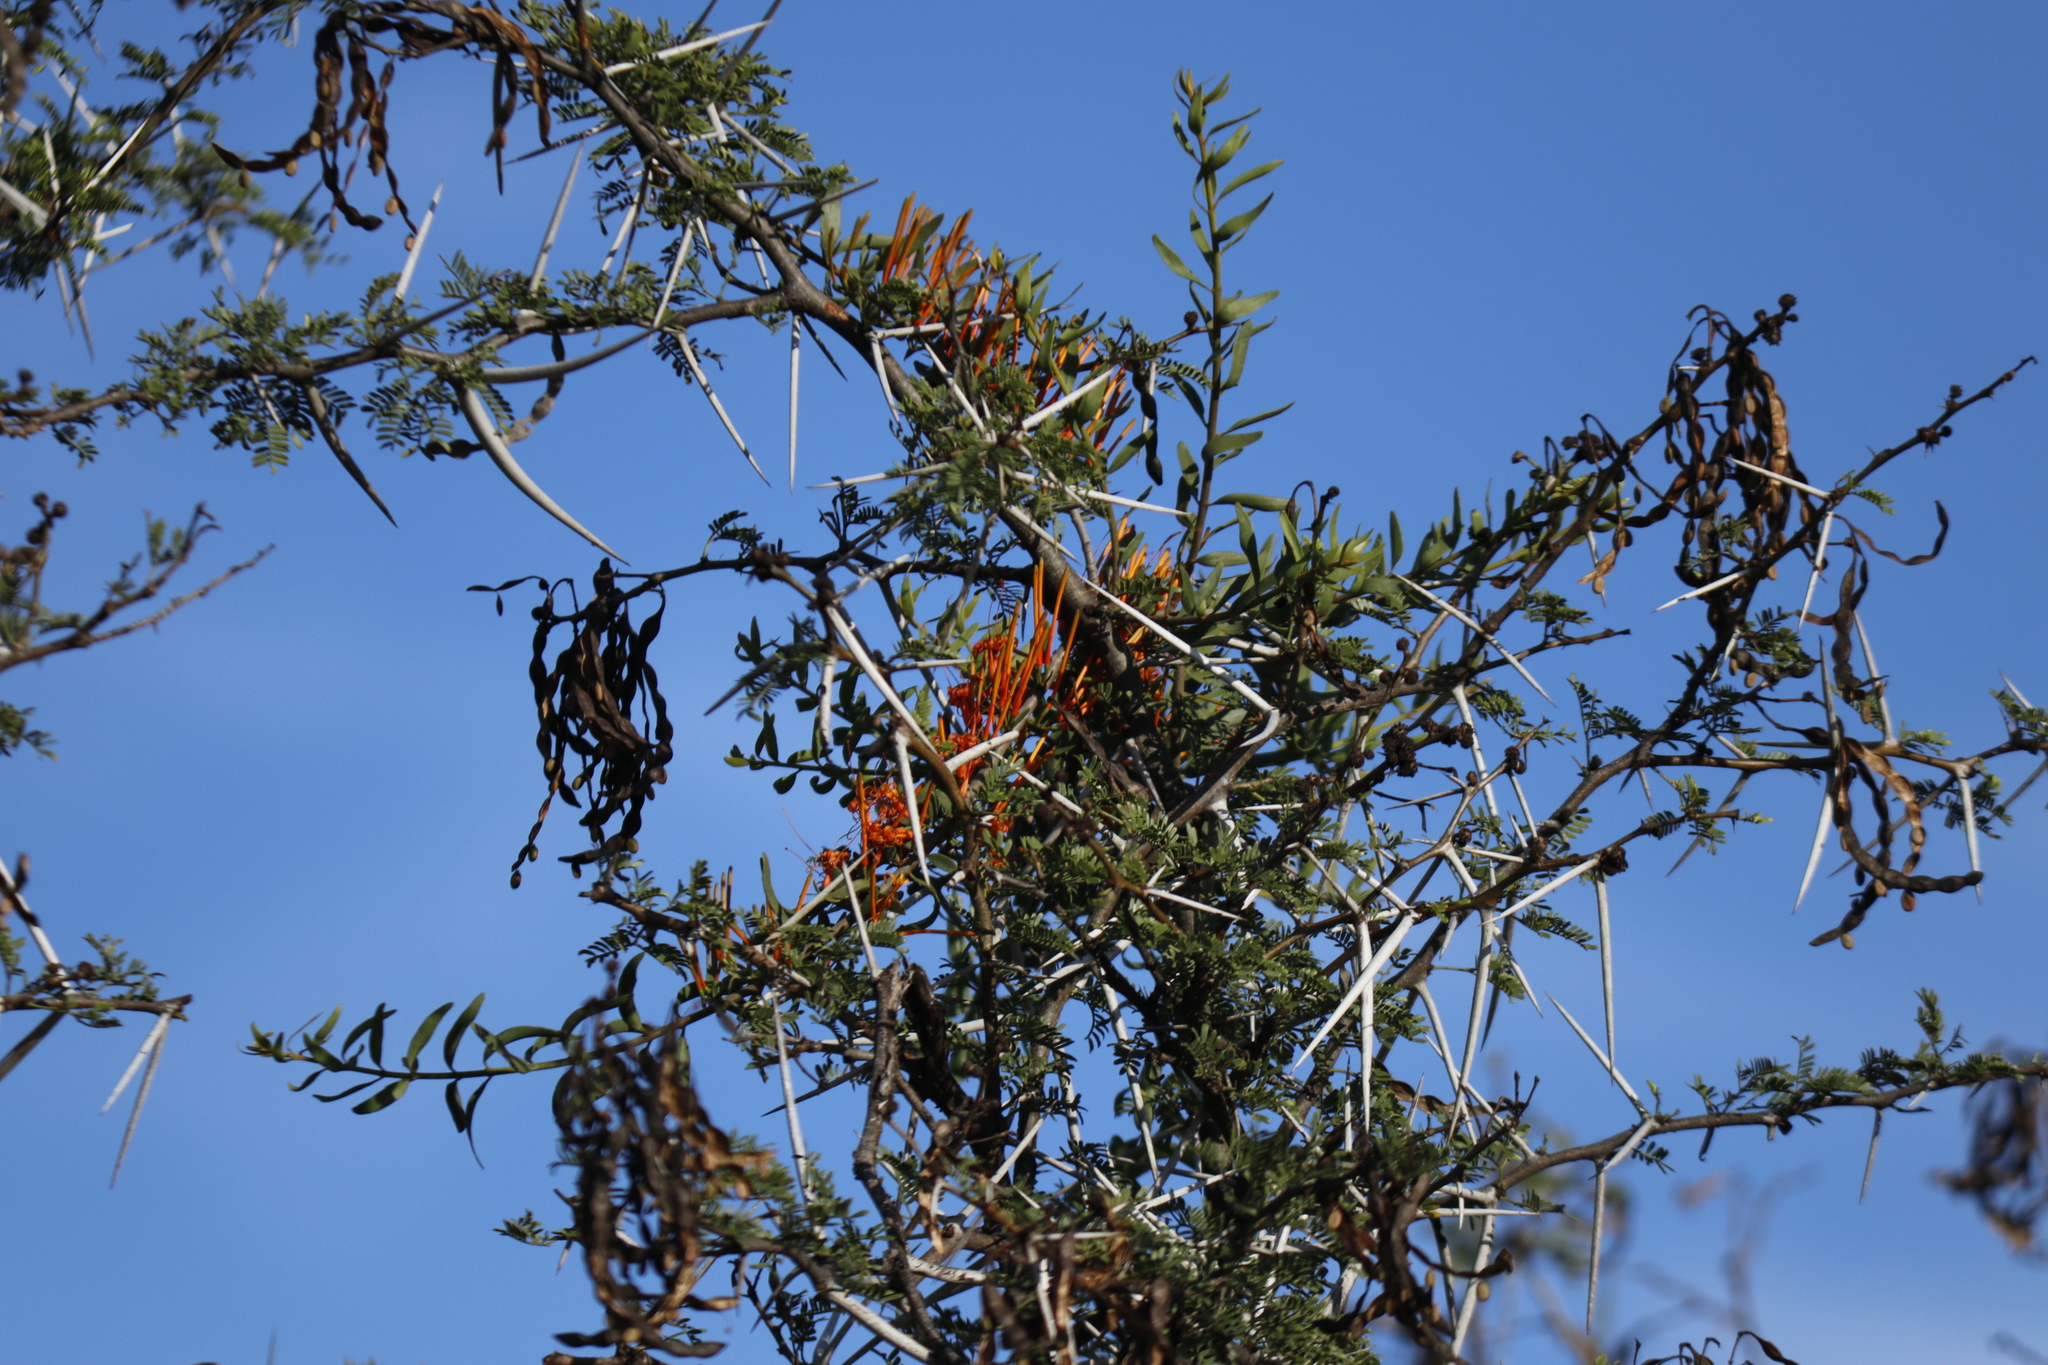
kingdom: Plantae
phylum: Tracheophyta
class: Magnoliopsida
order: Santalales
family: Loranthaceae
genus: Moquiniella
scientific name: Moquiniella rubra
